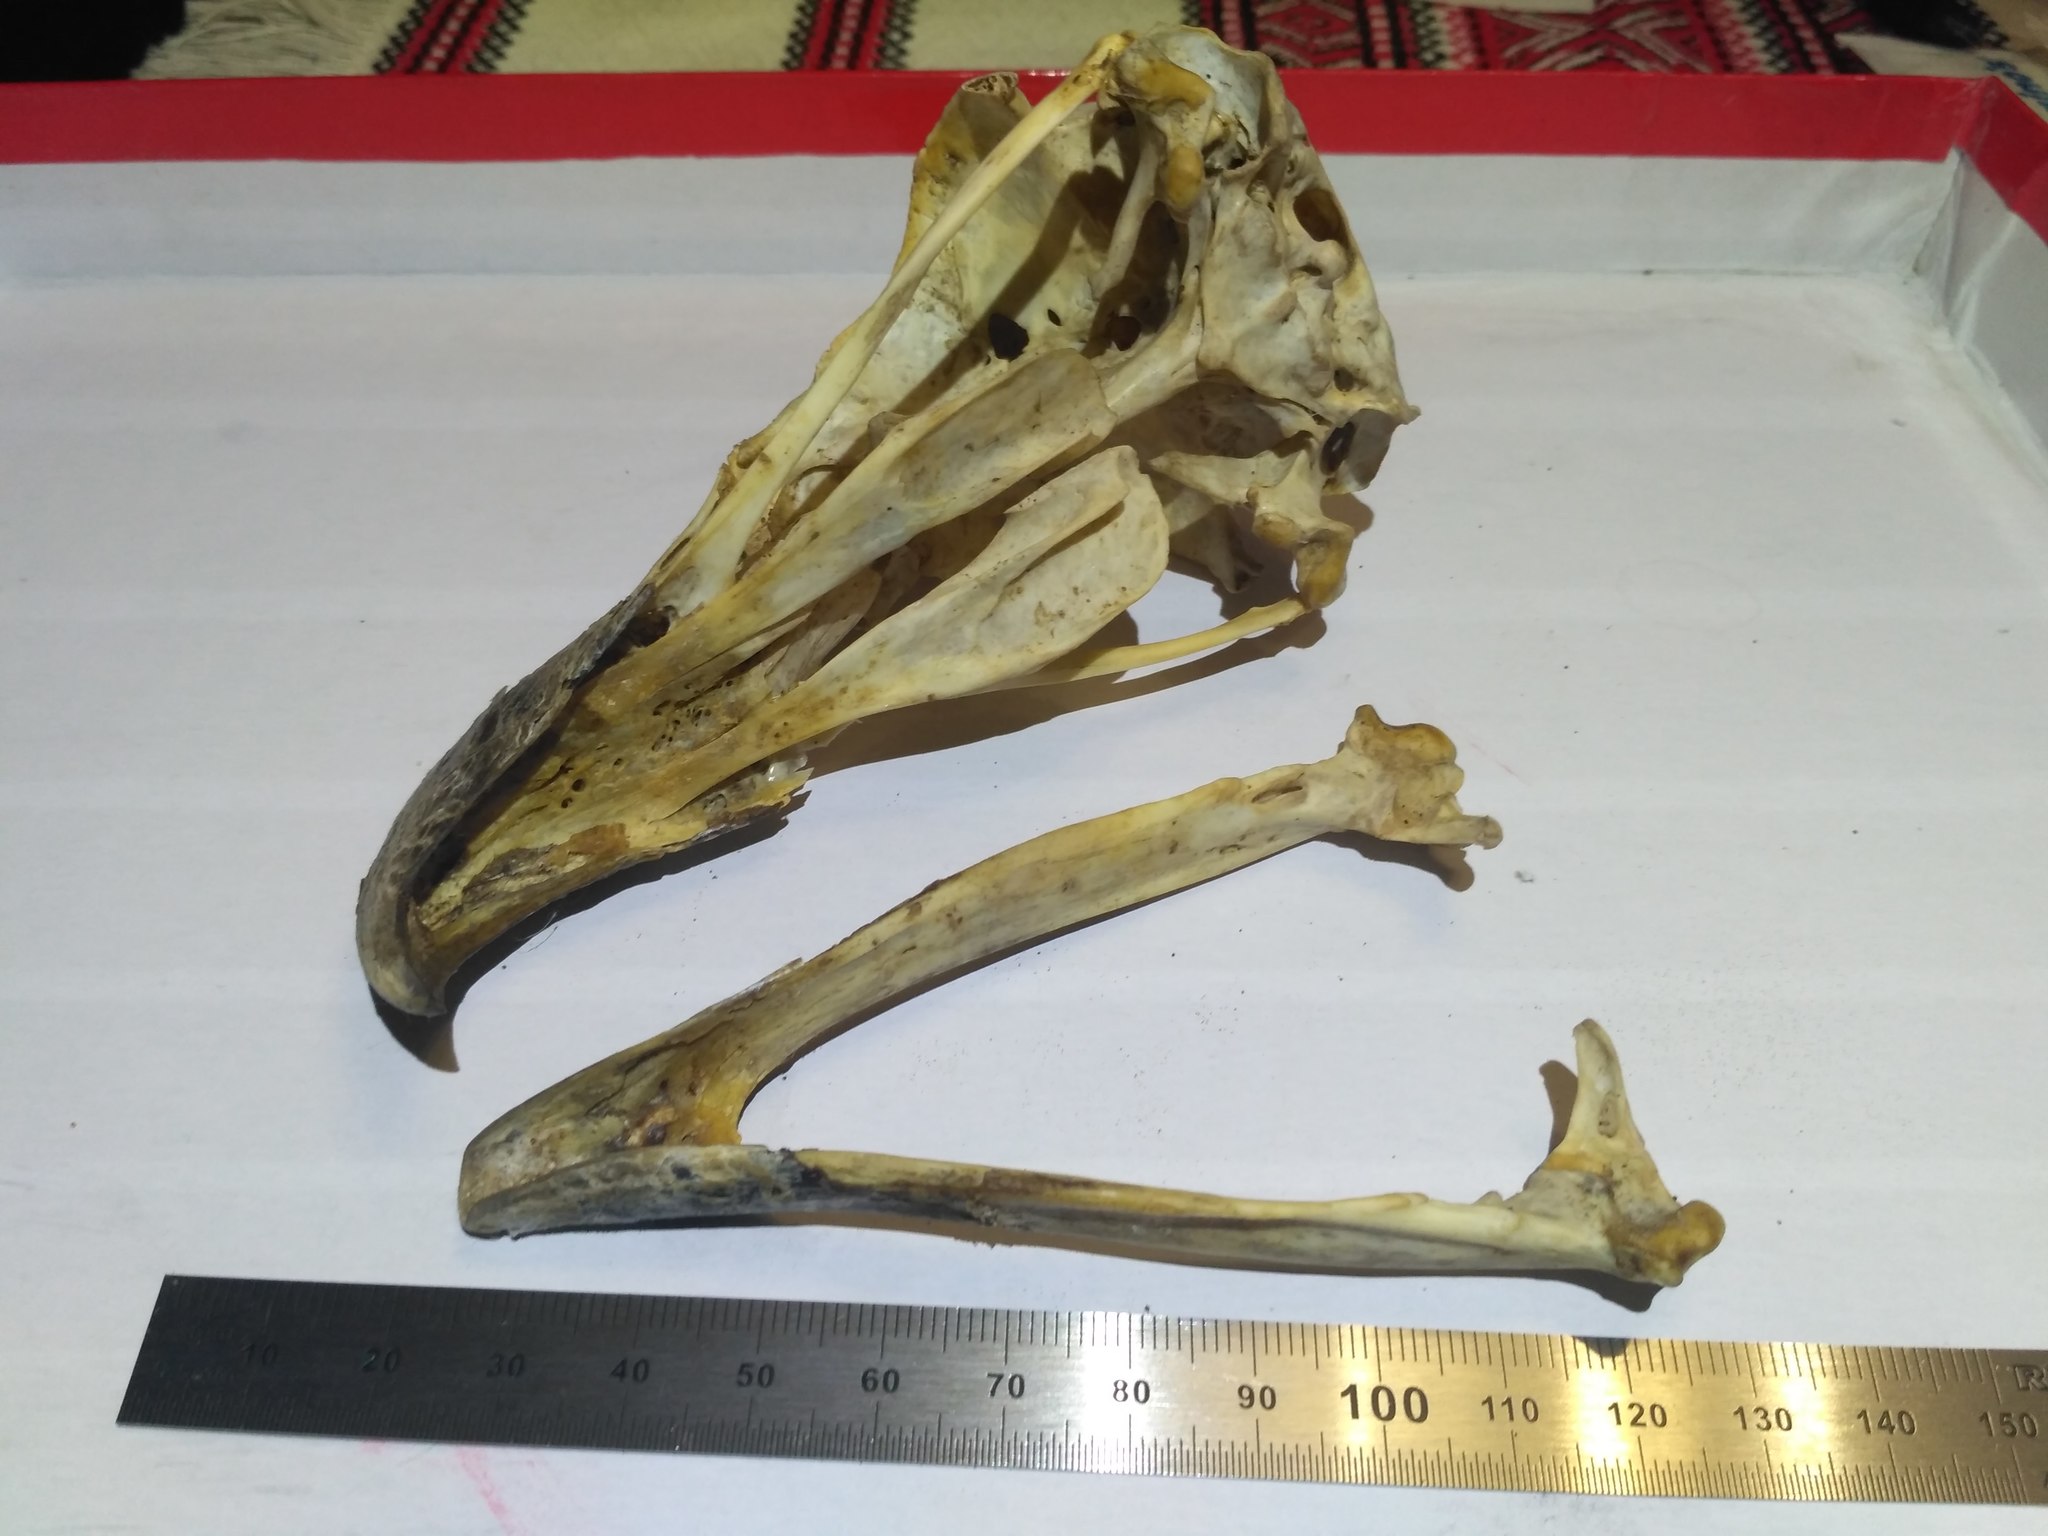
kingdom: Animalia
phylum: Chordata
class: Aves
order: Accipitriformes
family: Accipitridae
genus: Haliaeetus
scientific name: Haliaeetus albicilla
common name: White-tailed eagle
